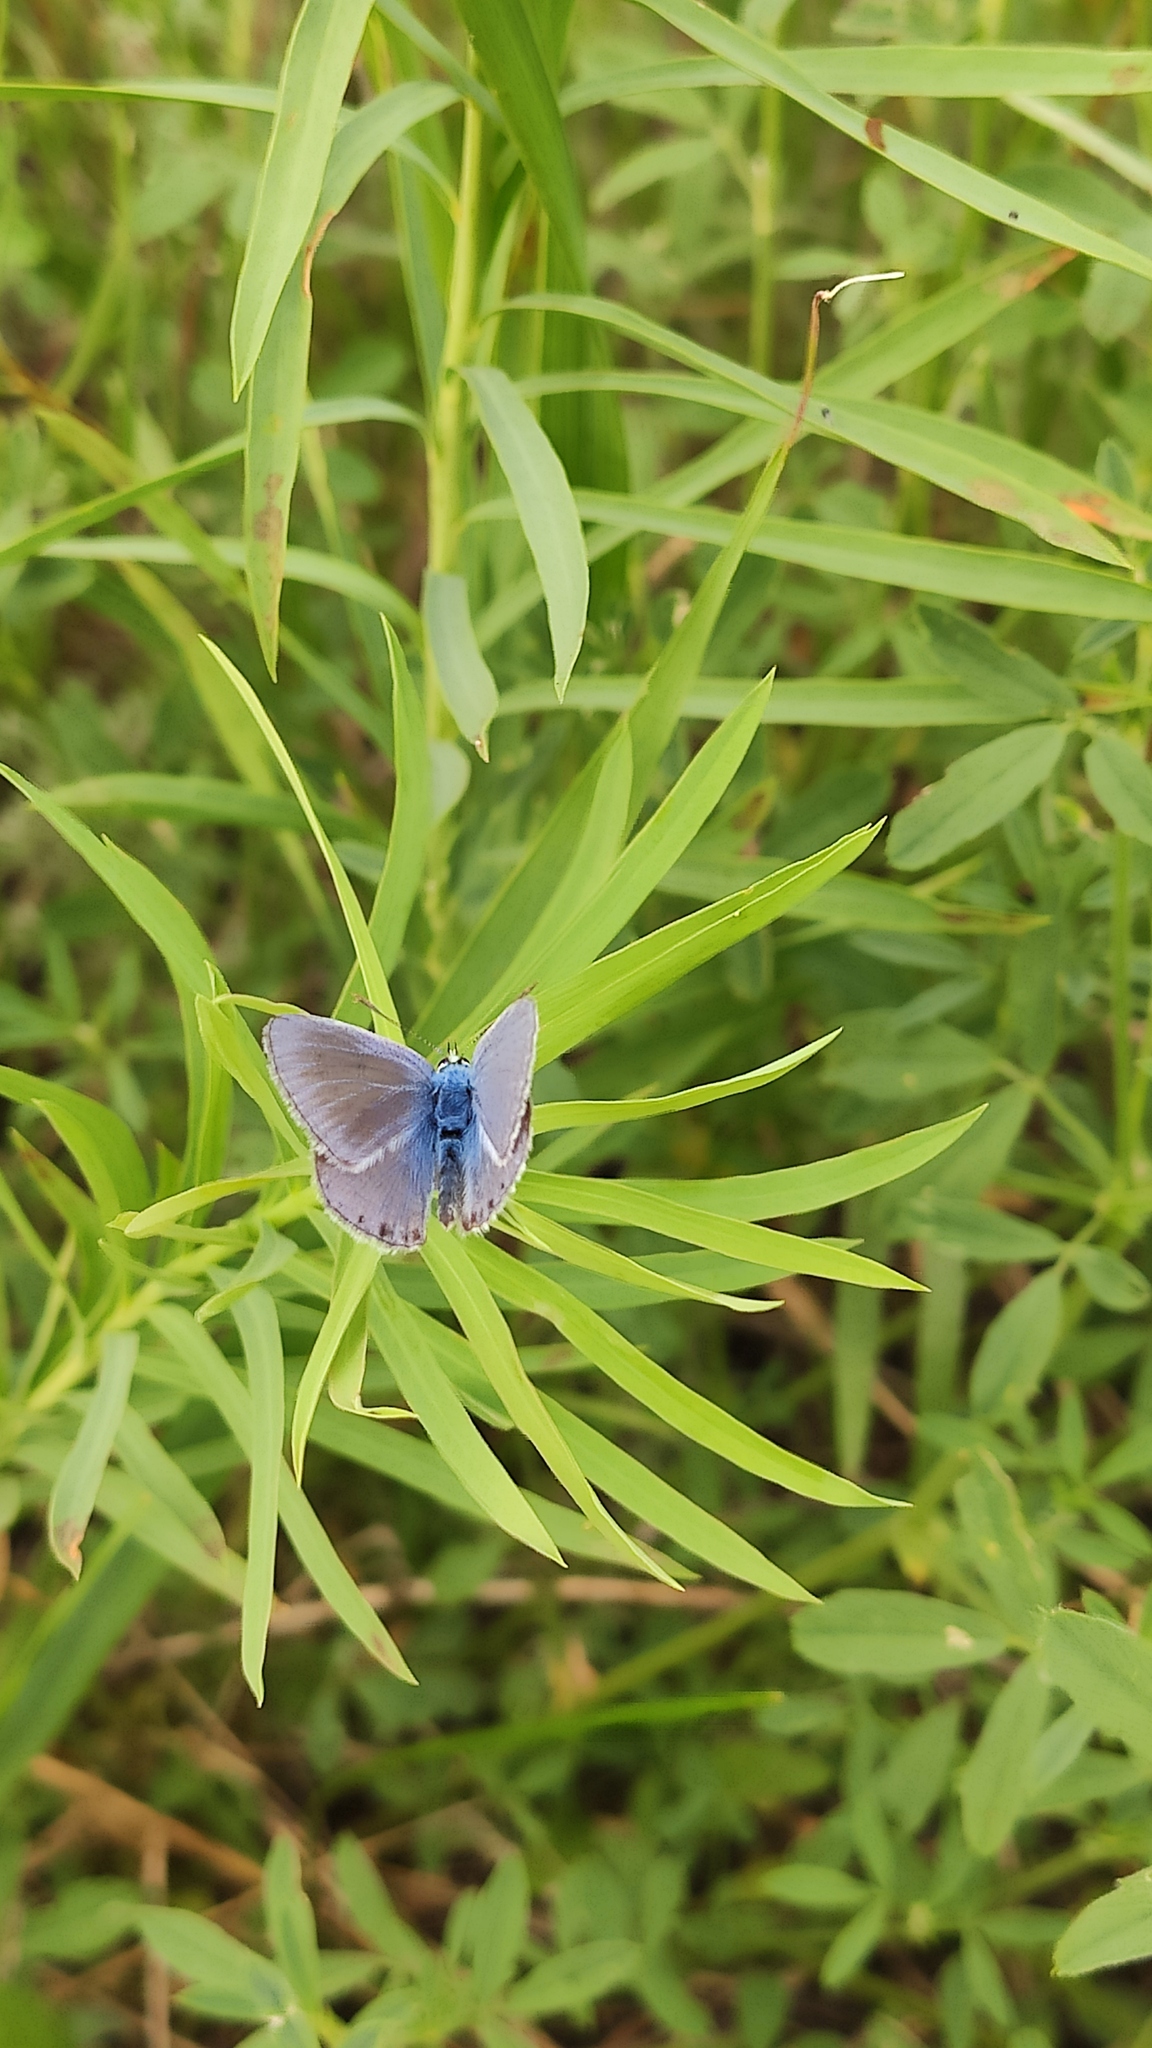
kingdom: Animalia
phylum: Arthropoda
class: Insecta
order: Lepidoptera
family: Lycaenidae
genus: Polyommatus
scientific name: Polyommatus icarus
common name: Common blue
